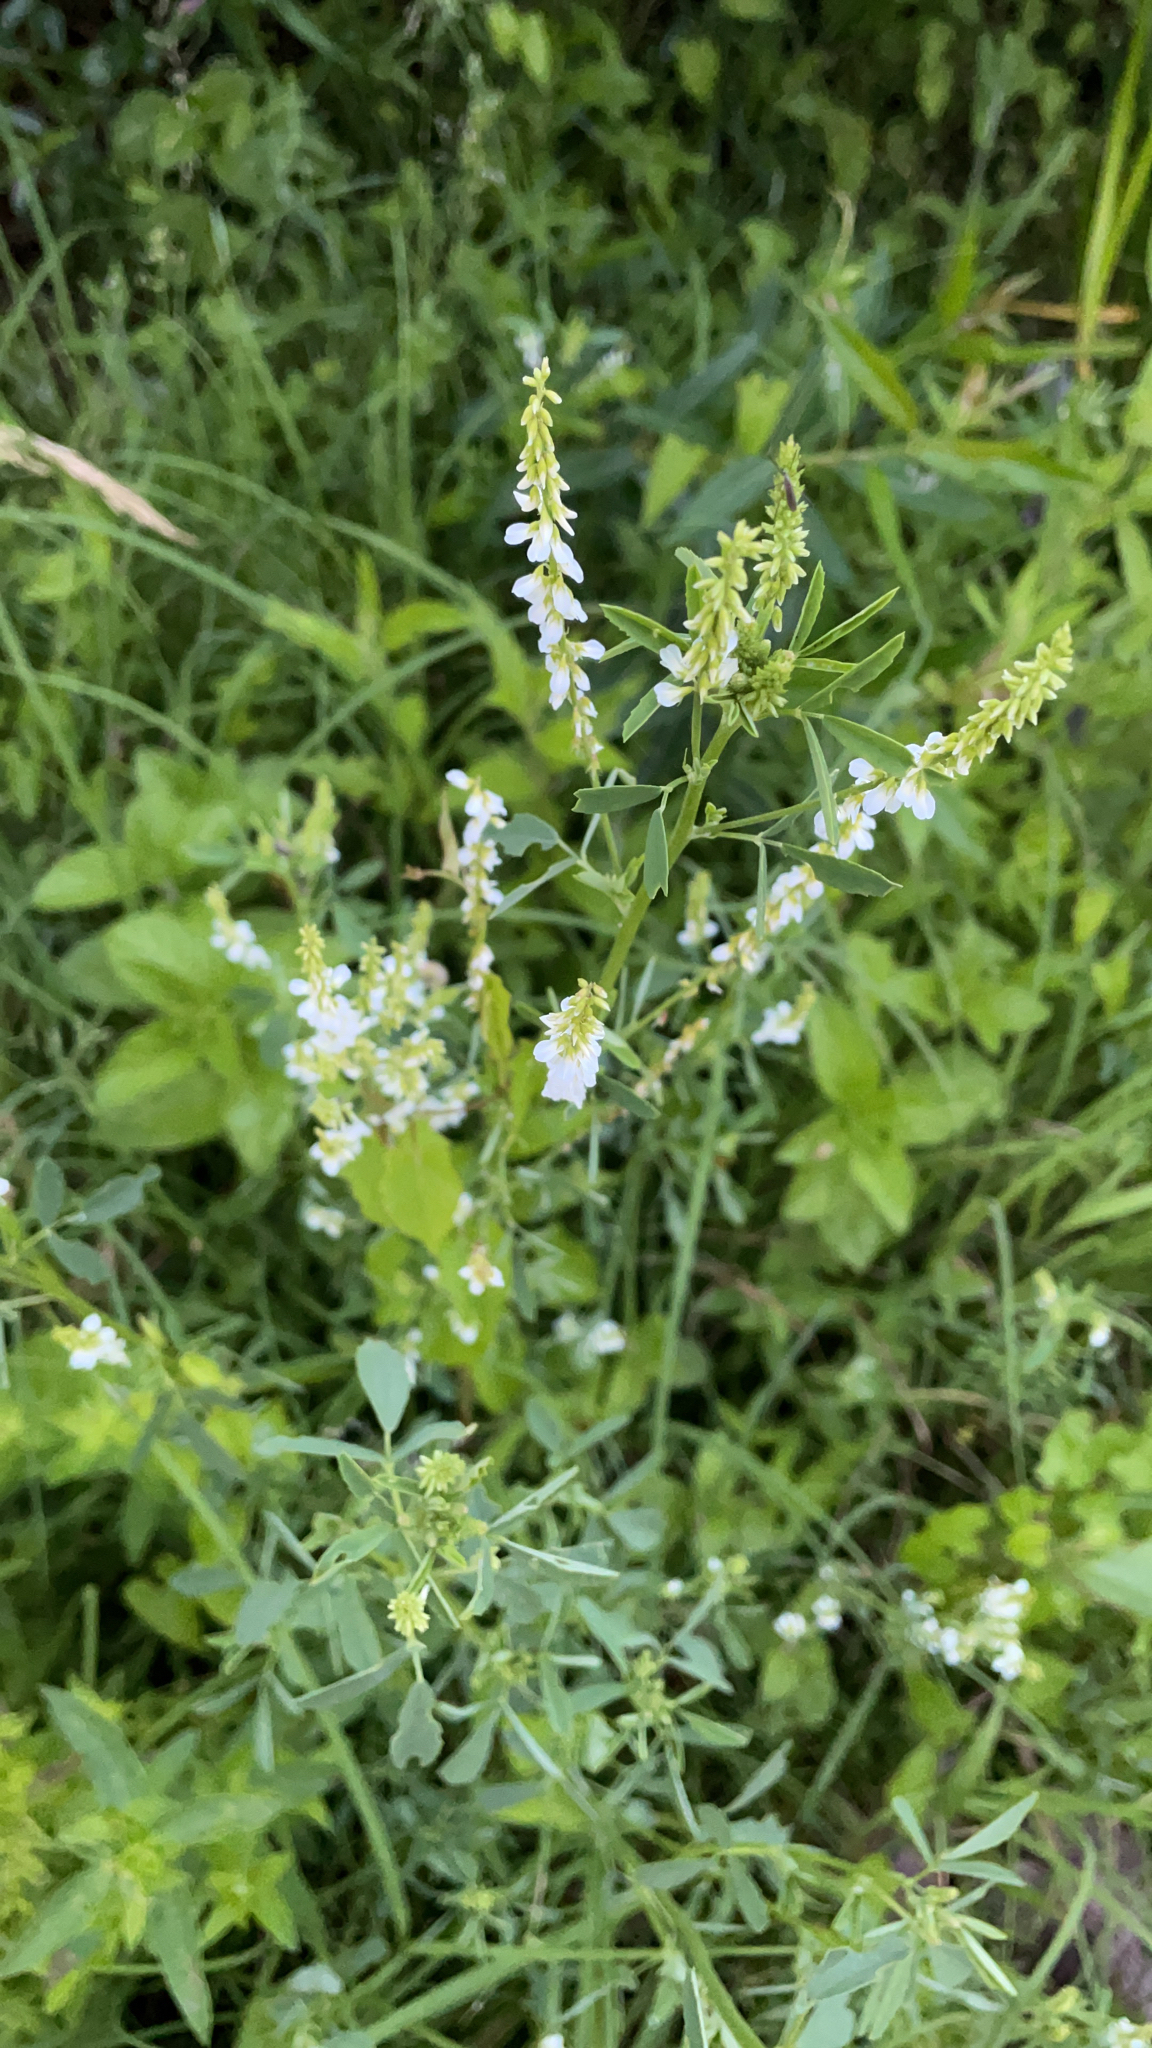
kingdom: Plantae
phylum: Tracheophyta
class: Magnoliopsida
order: Fabales
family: Fabaceae
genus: Melilotus
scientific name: Melilotus albus
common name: White melilot
